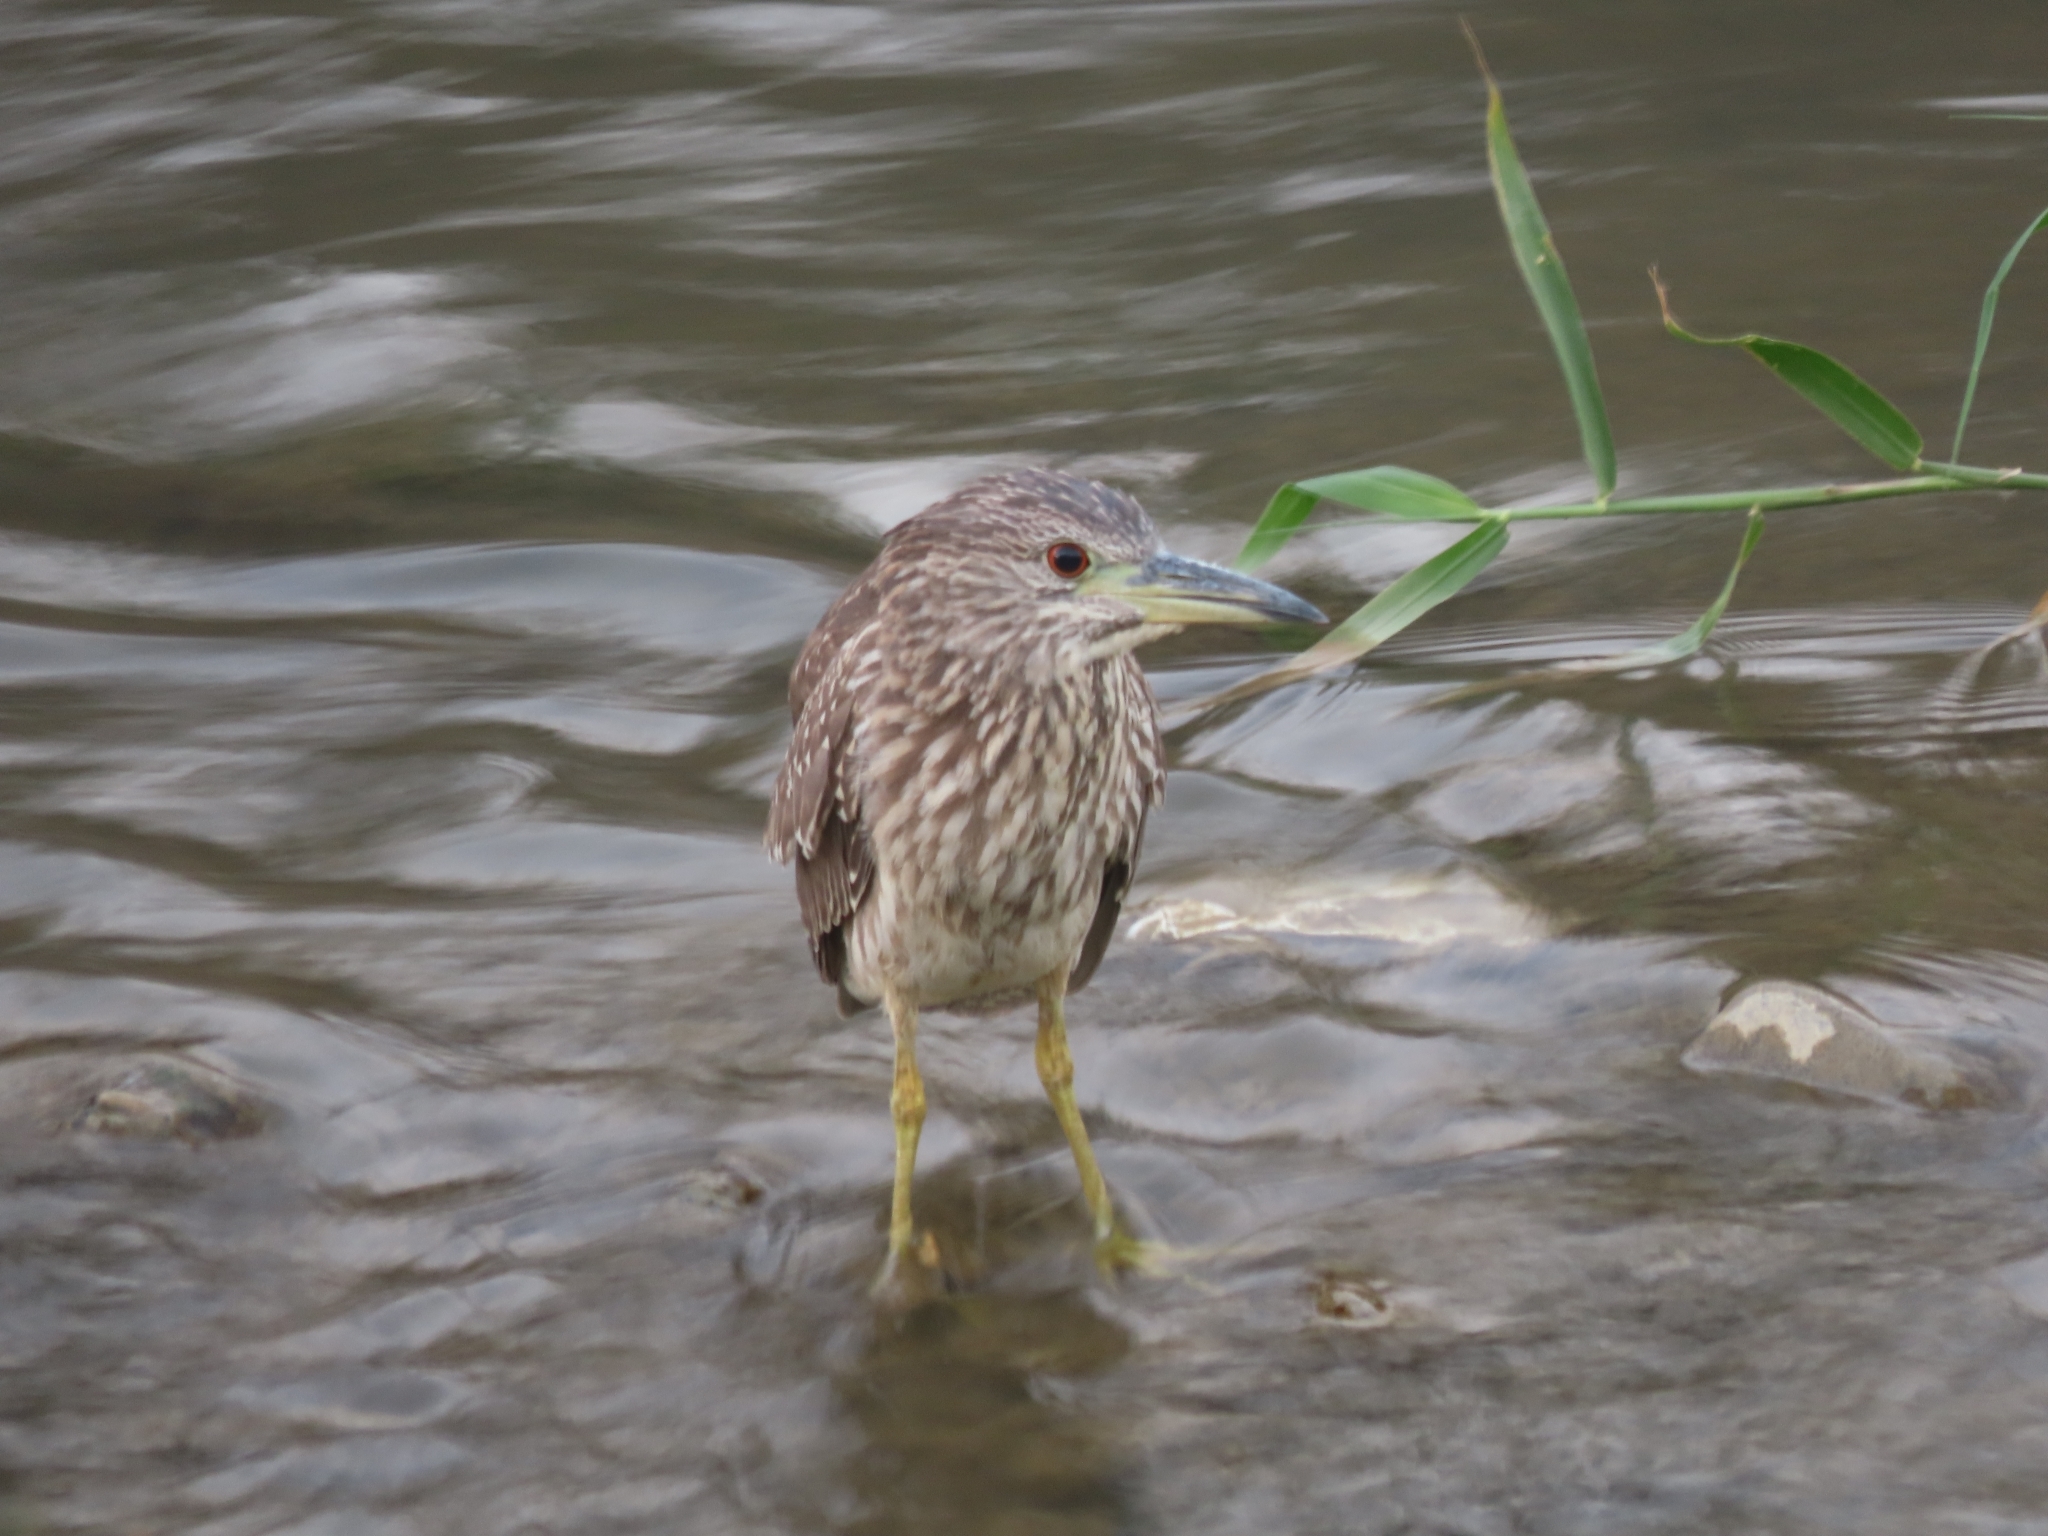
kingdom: Animalia
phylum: Chordata
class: Aves
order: Pelecaniformes
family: Ardeidae
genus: Nycticorax
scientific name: Nycticorax nycticorax
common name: Black-crowned night heron
